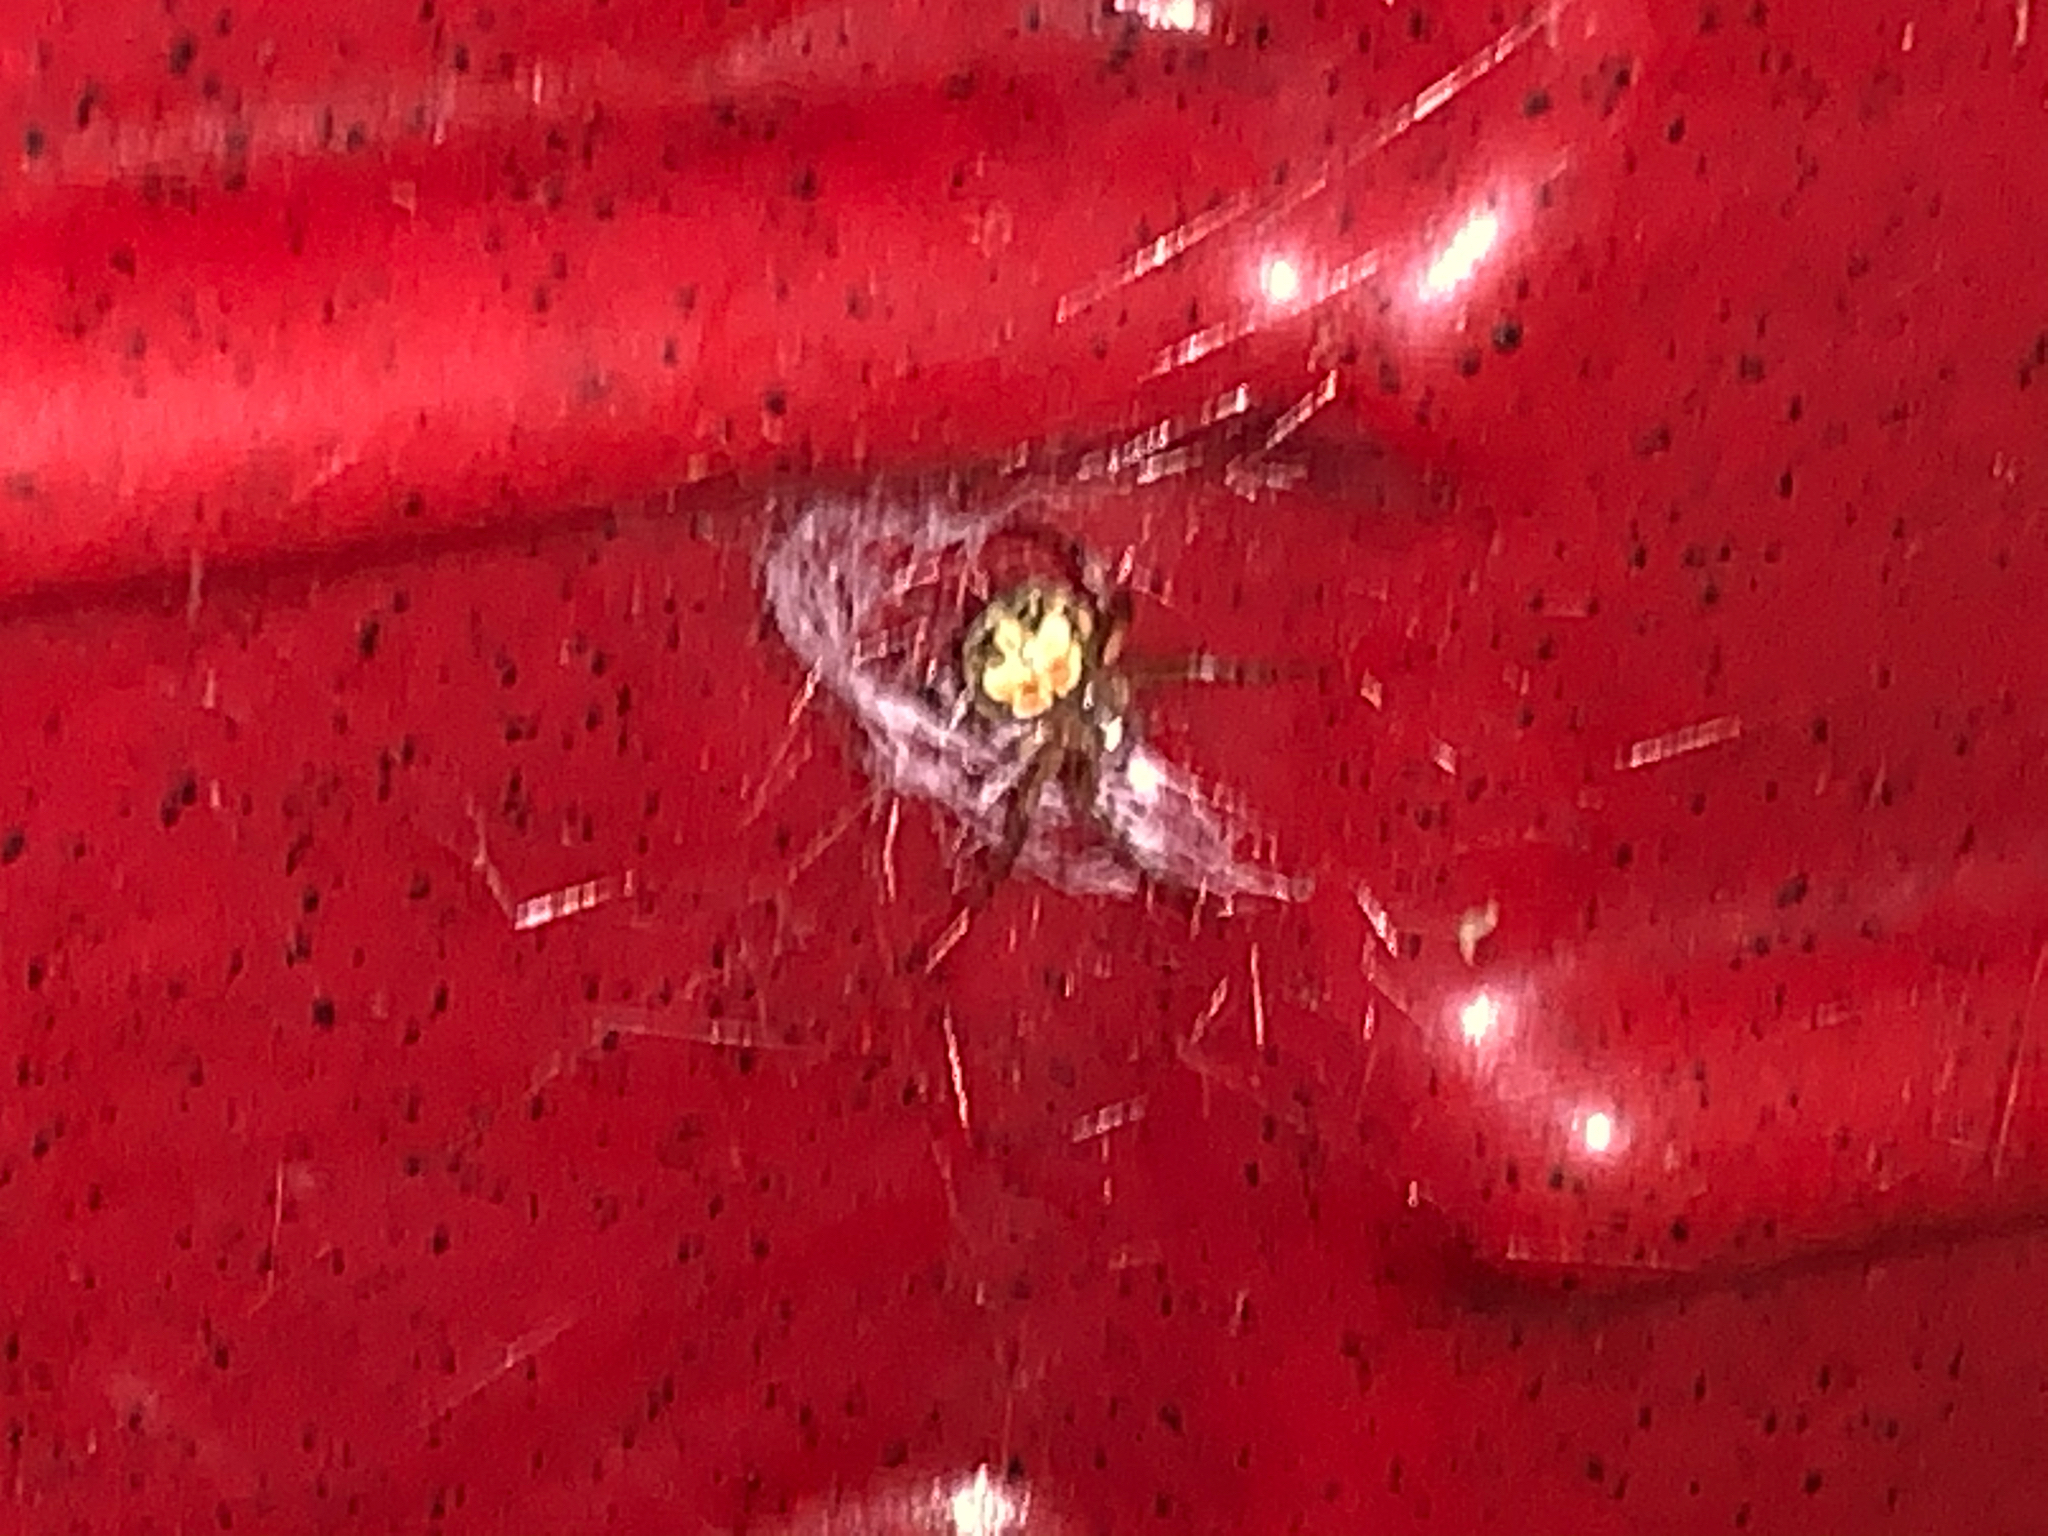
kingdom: Animalia
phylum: Arthropoda
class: Arachnida
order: Araneae
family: Araneidae
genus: Araneus
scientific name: Araneus pegnia
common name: Orb weavers
